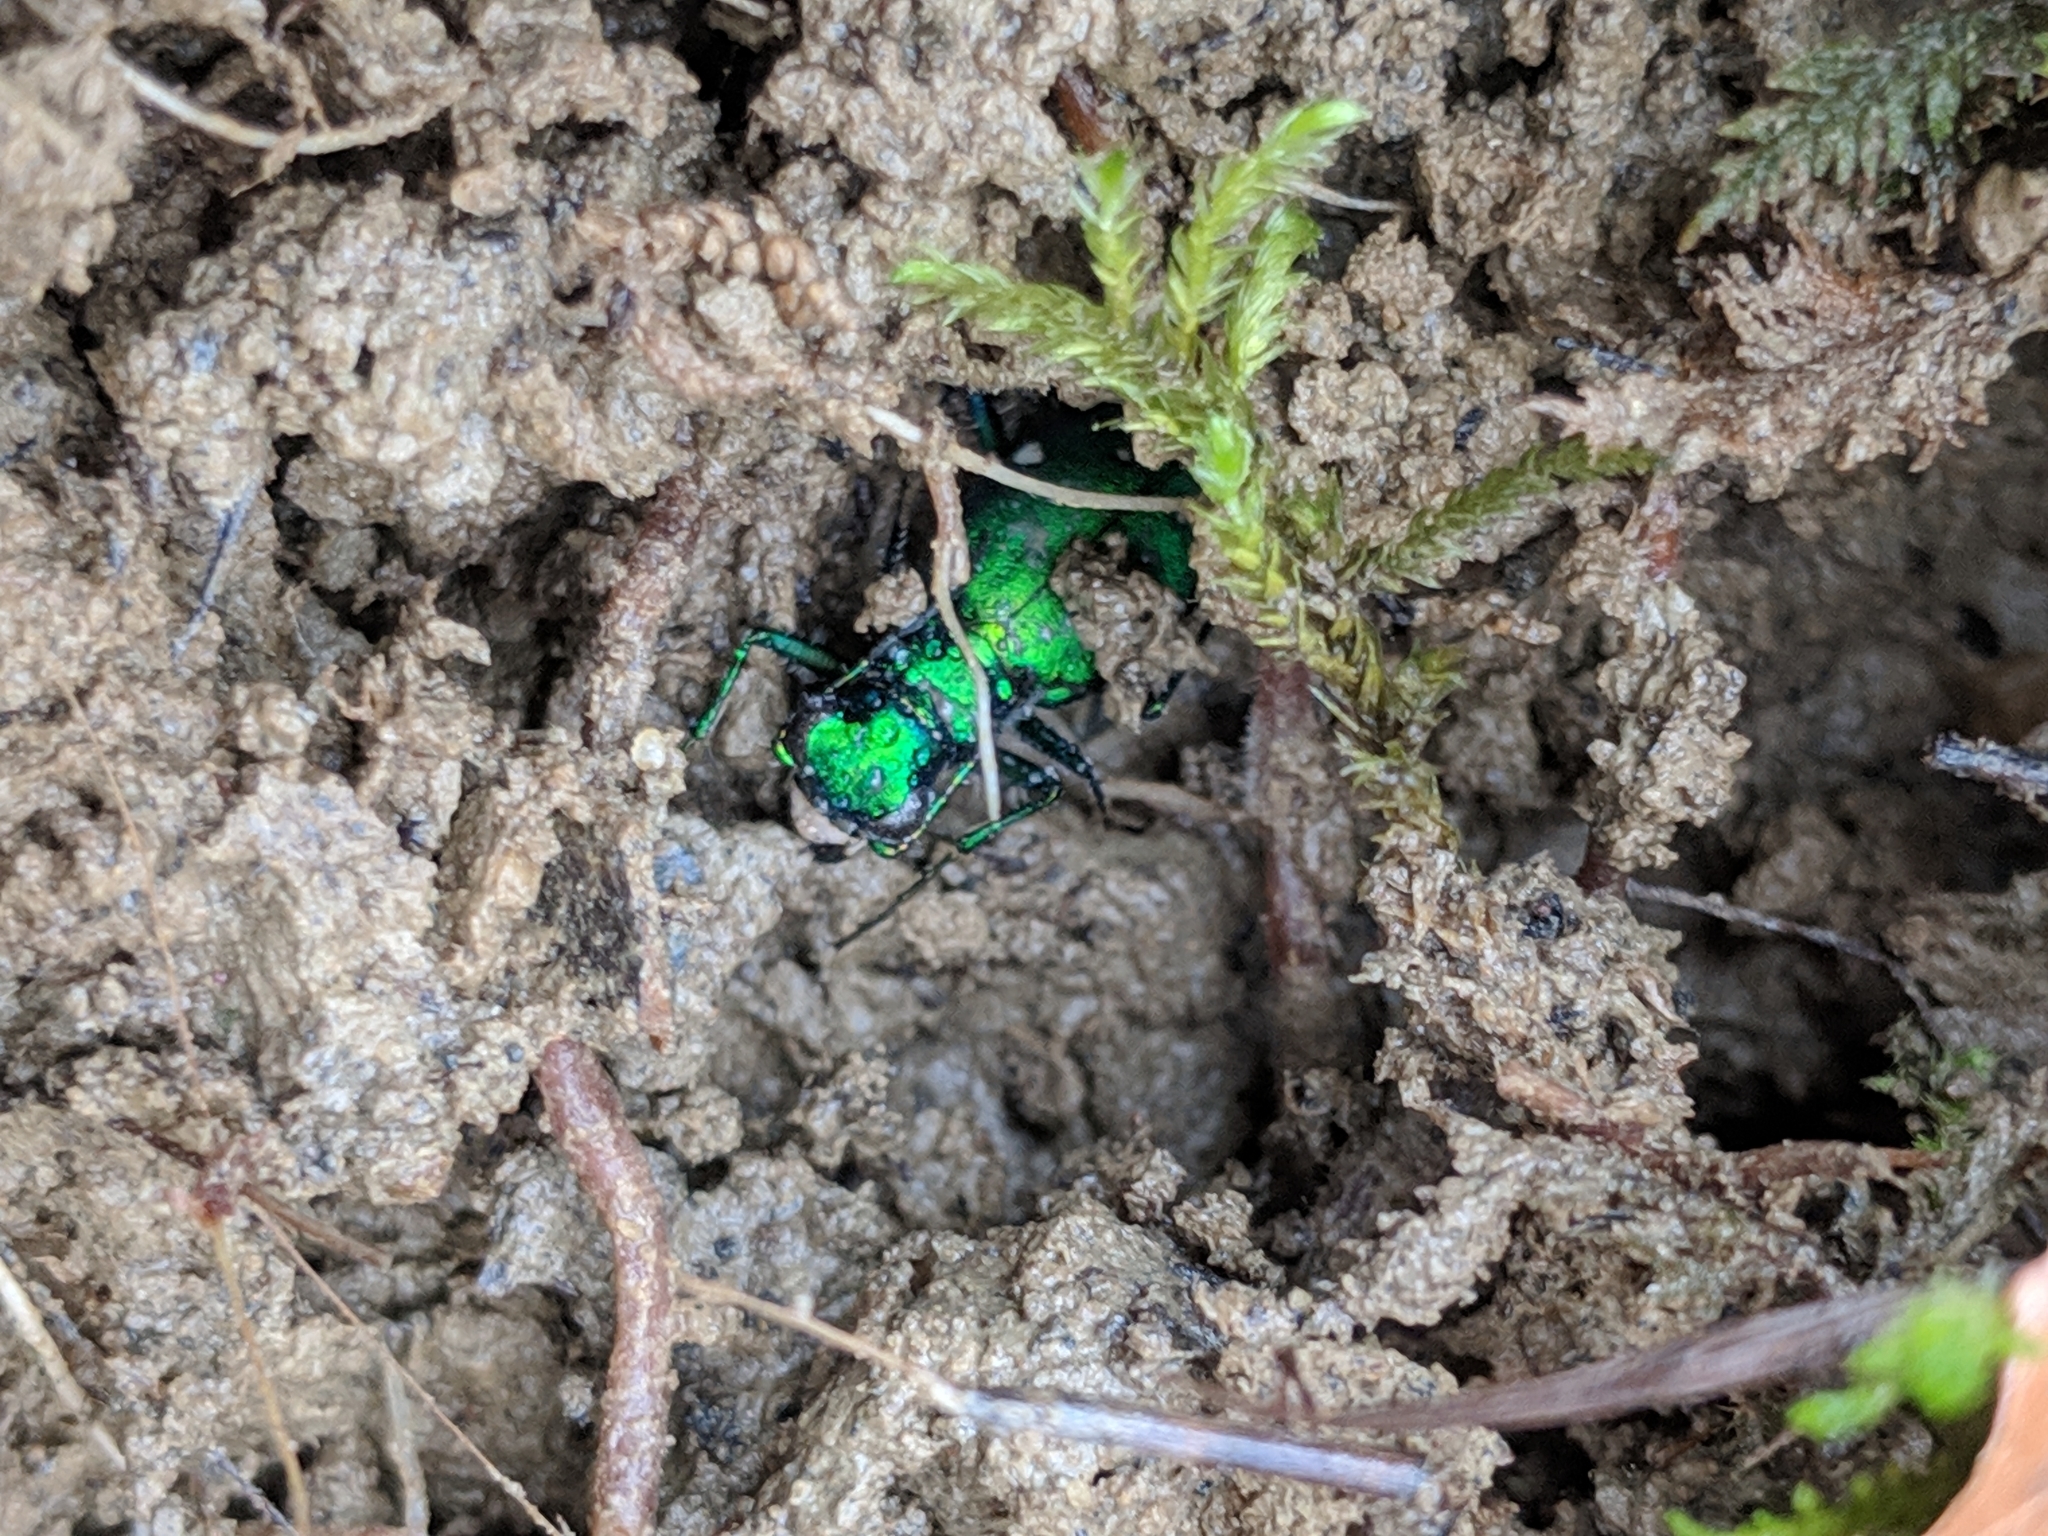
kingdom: Animalia
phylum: Arthropoda
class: Insecta
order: Coleoptera
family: Carabidae
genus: Cicindela
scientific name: Cicindela sexguttata
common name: Six-spotted tiger beetle
